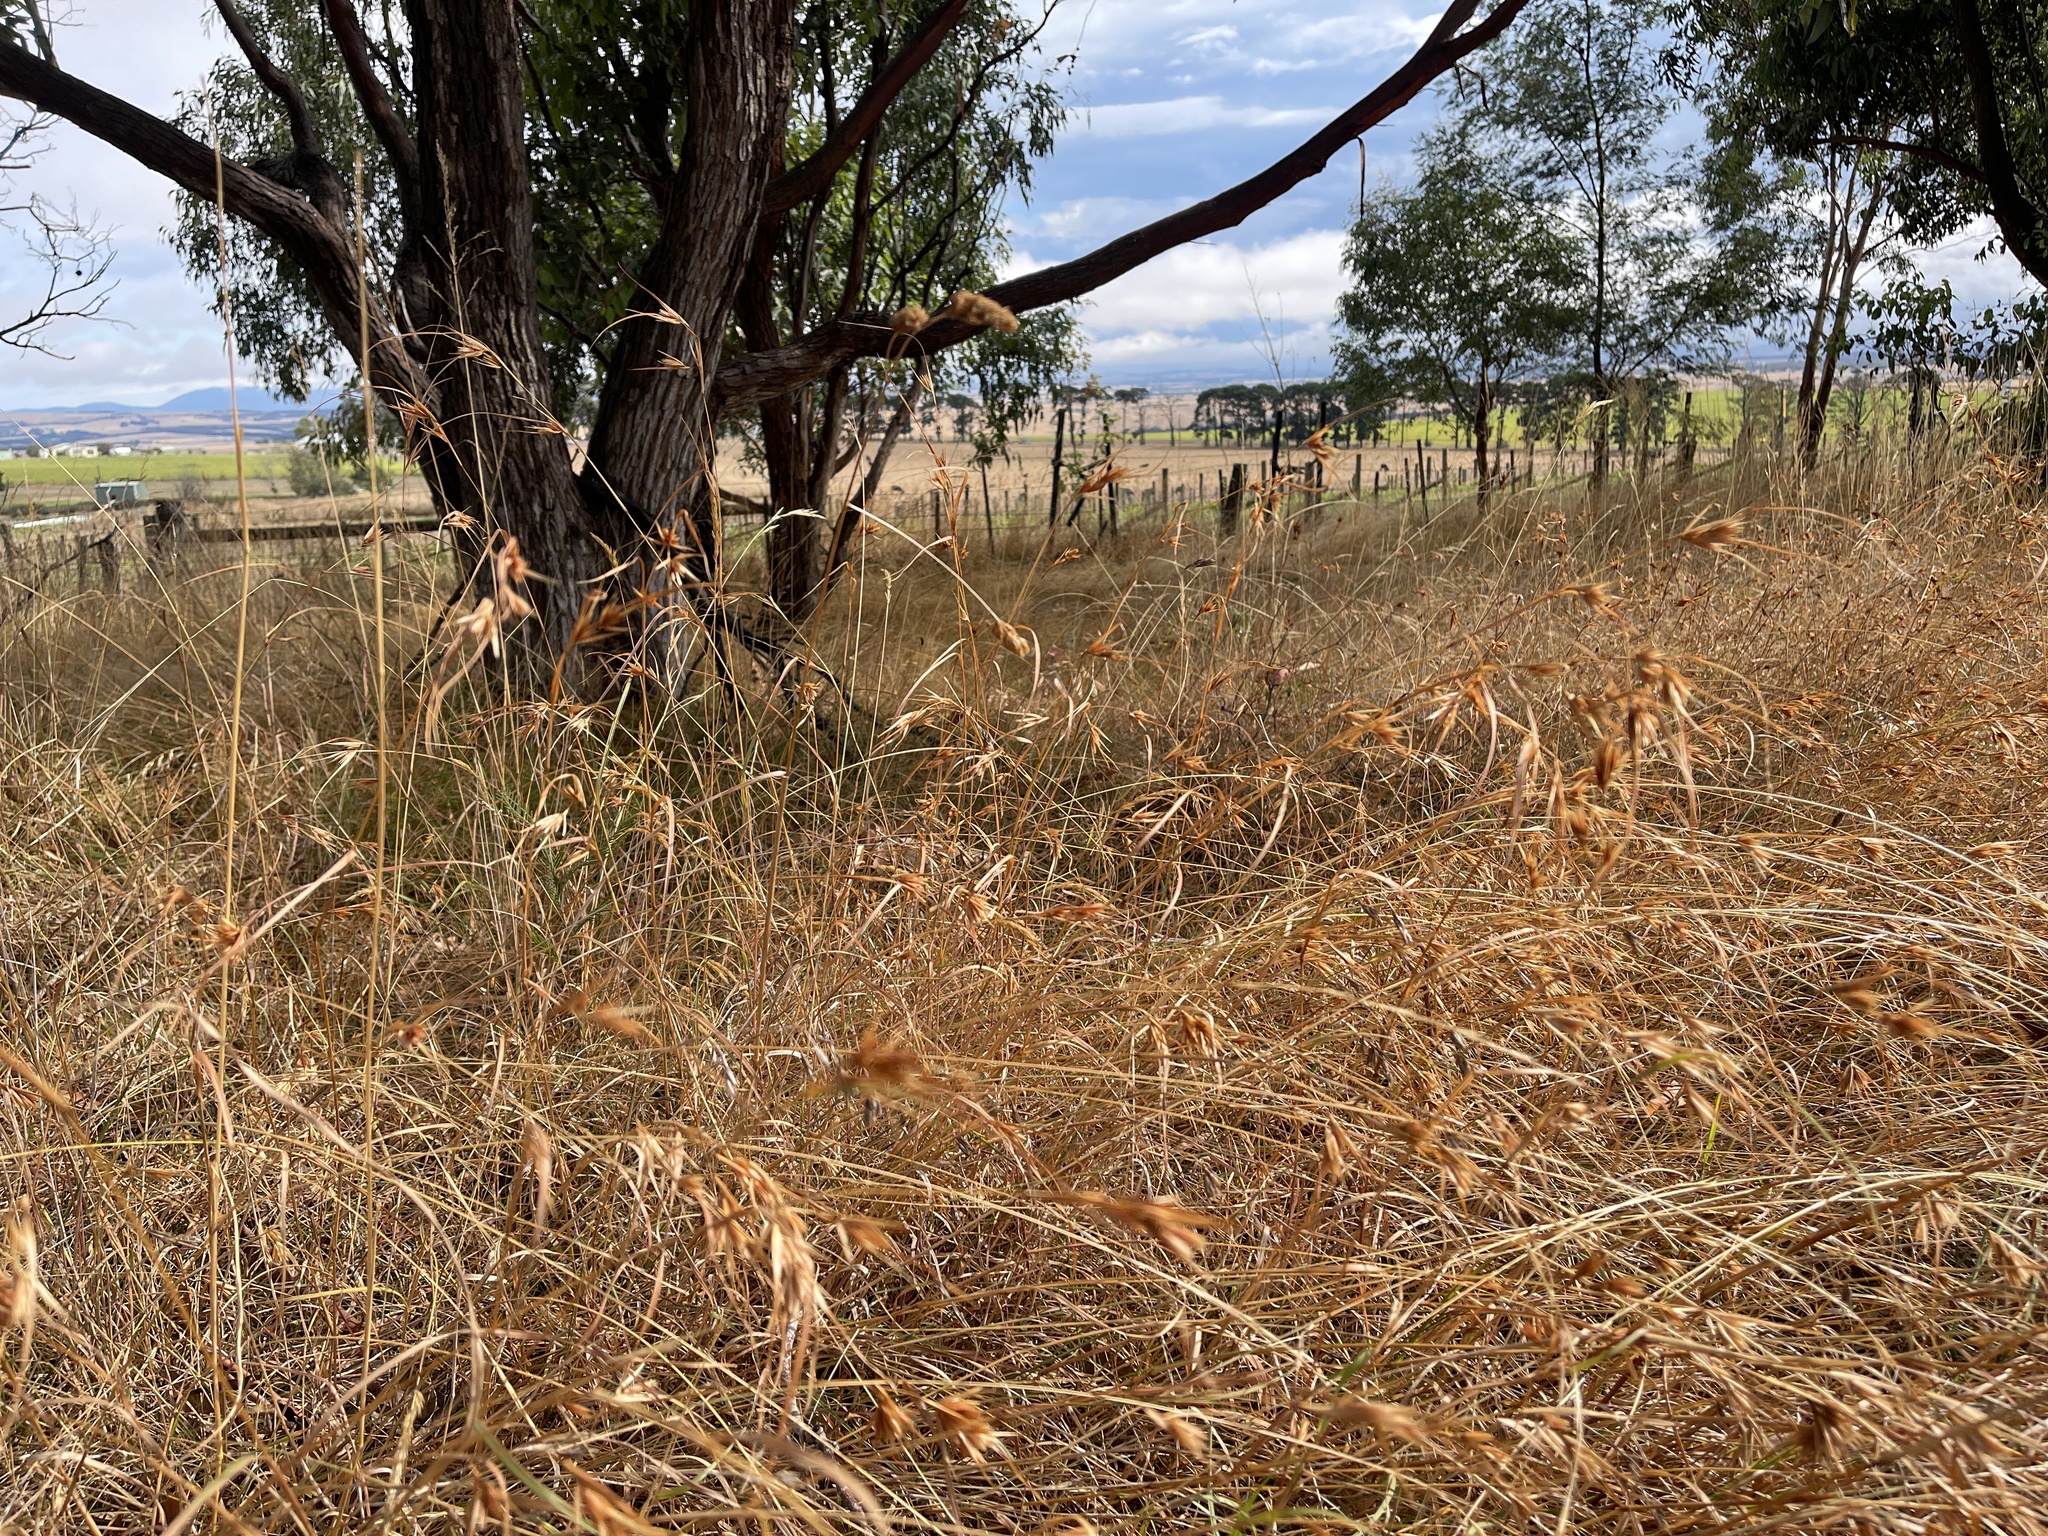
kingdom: Plantae
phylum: Tracheophyta
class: Liliopsida
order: Poales
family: Poaceae
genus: Themeda
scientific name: Themeda triandra
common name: Kangaroo grass
